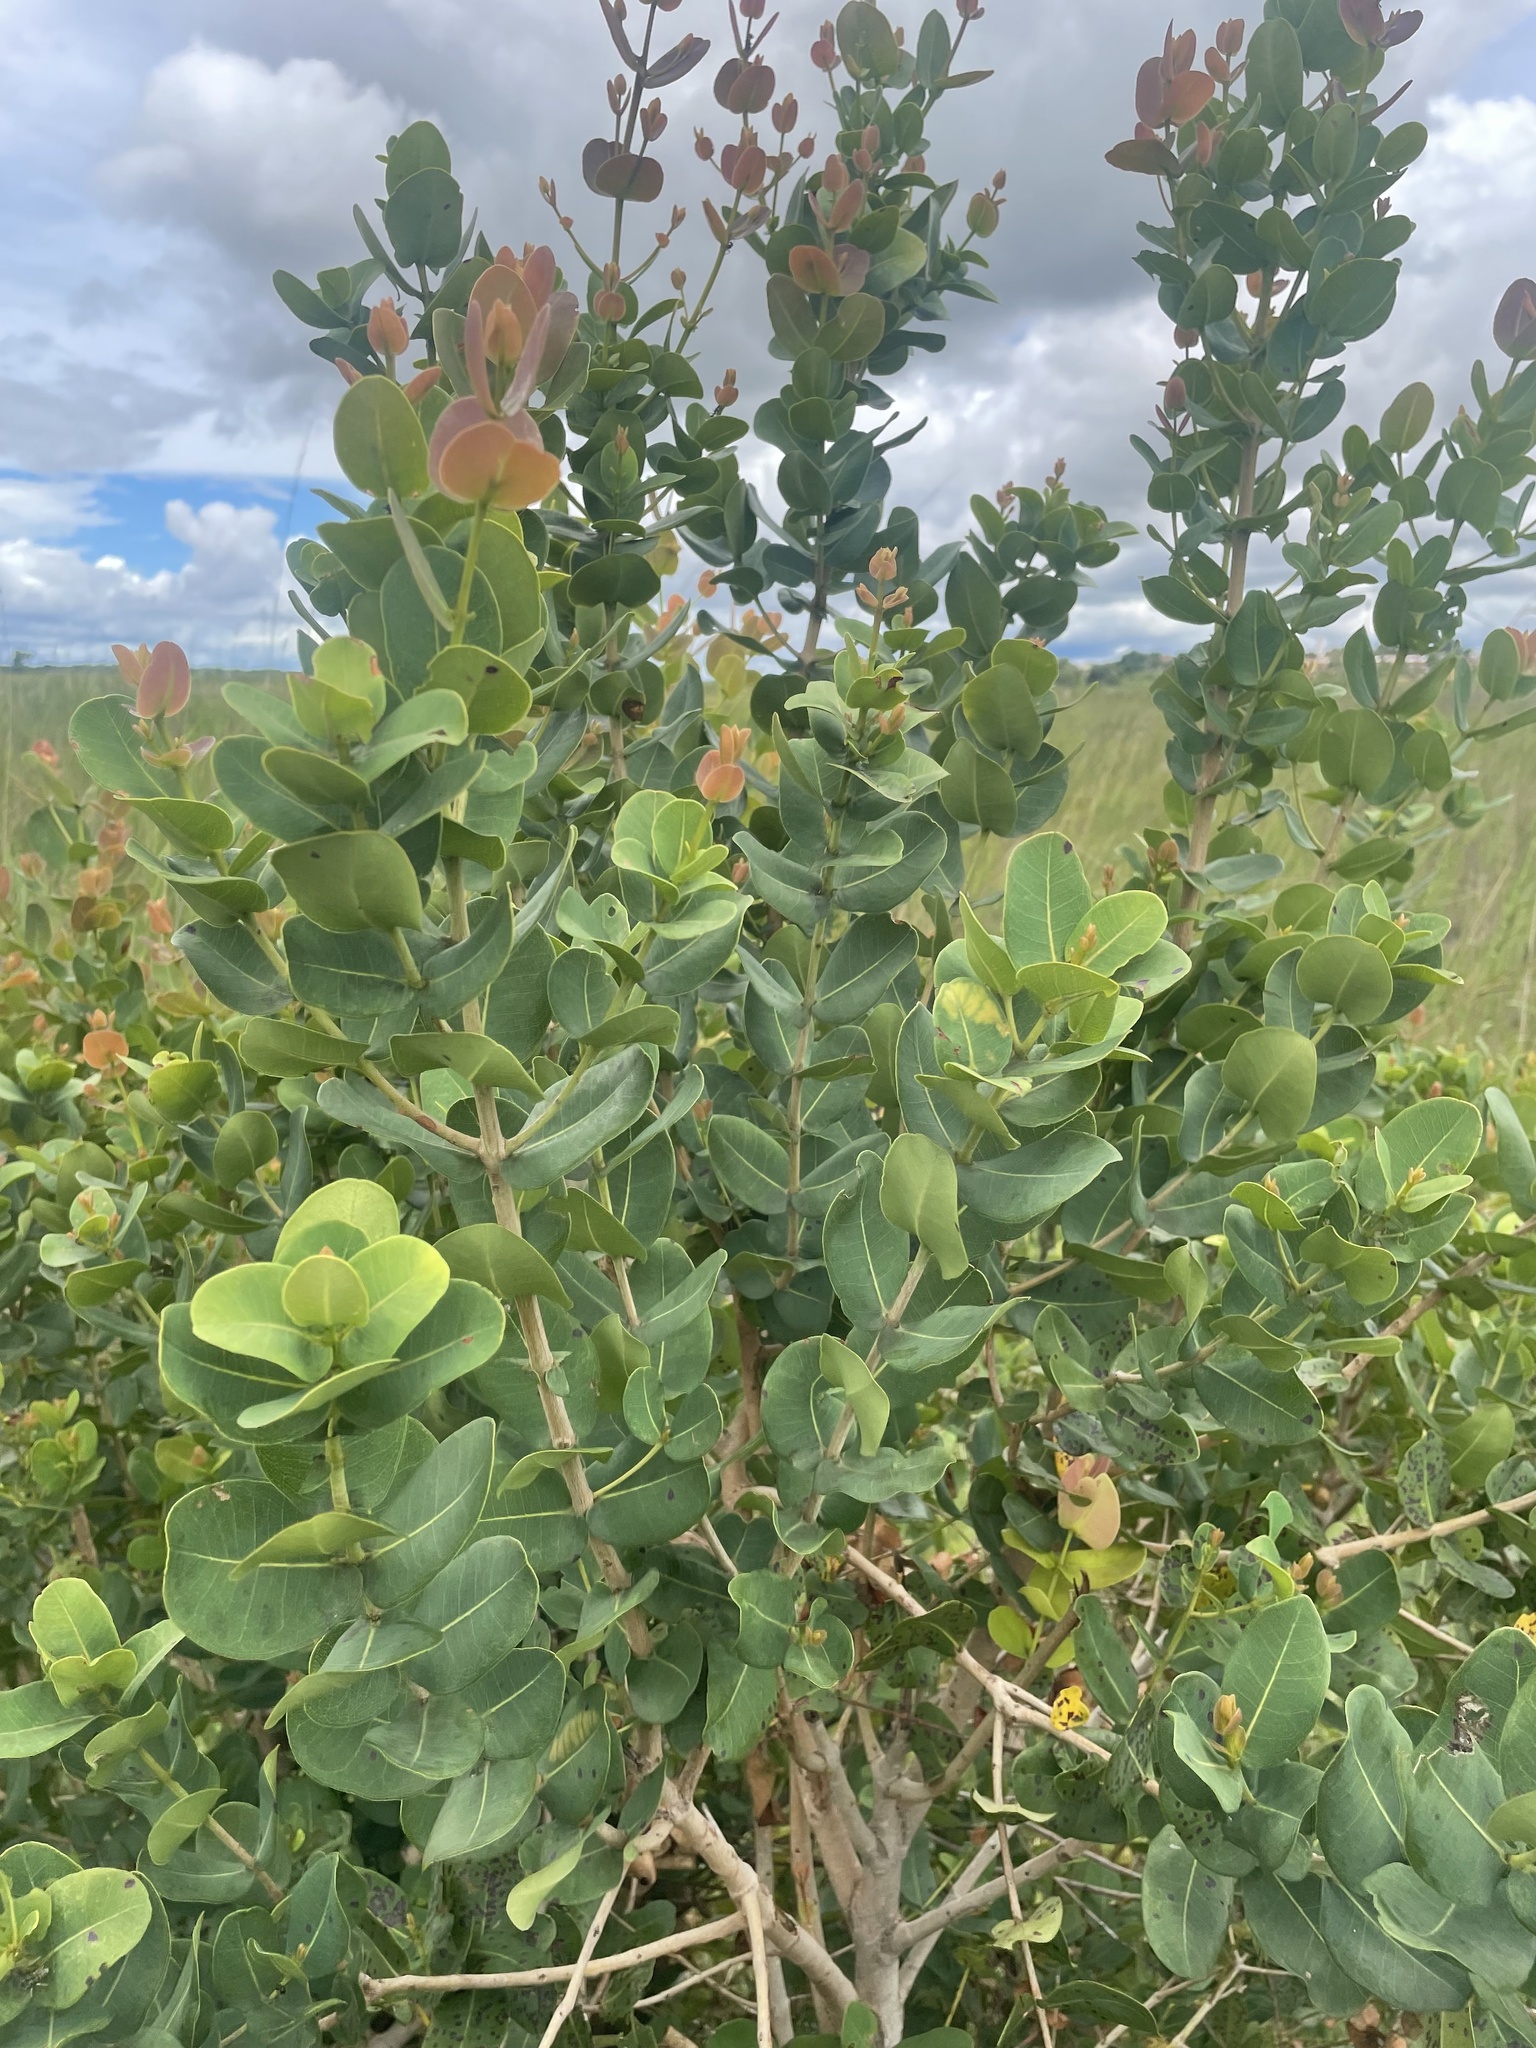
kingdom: Plantae
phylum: Tracheophyta
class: Magnoliopsida
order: Myrtales
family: Myrtaceae
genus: Syzygium
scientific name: Syzygium cordatum
